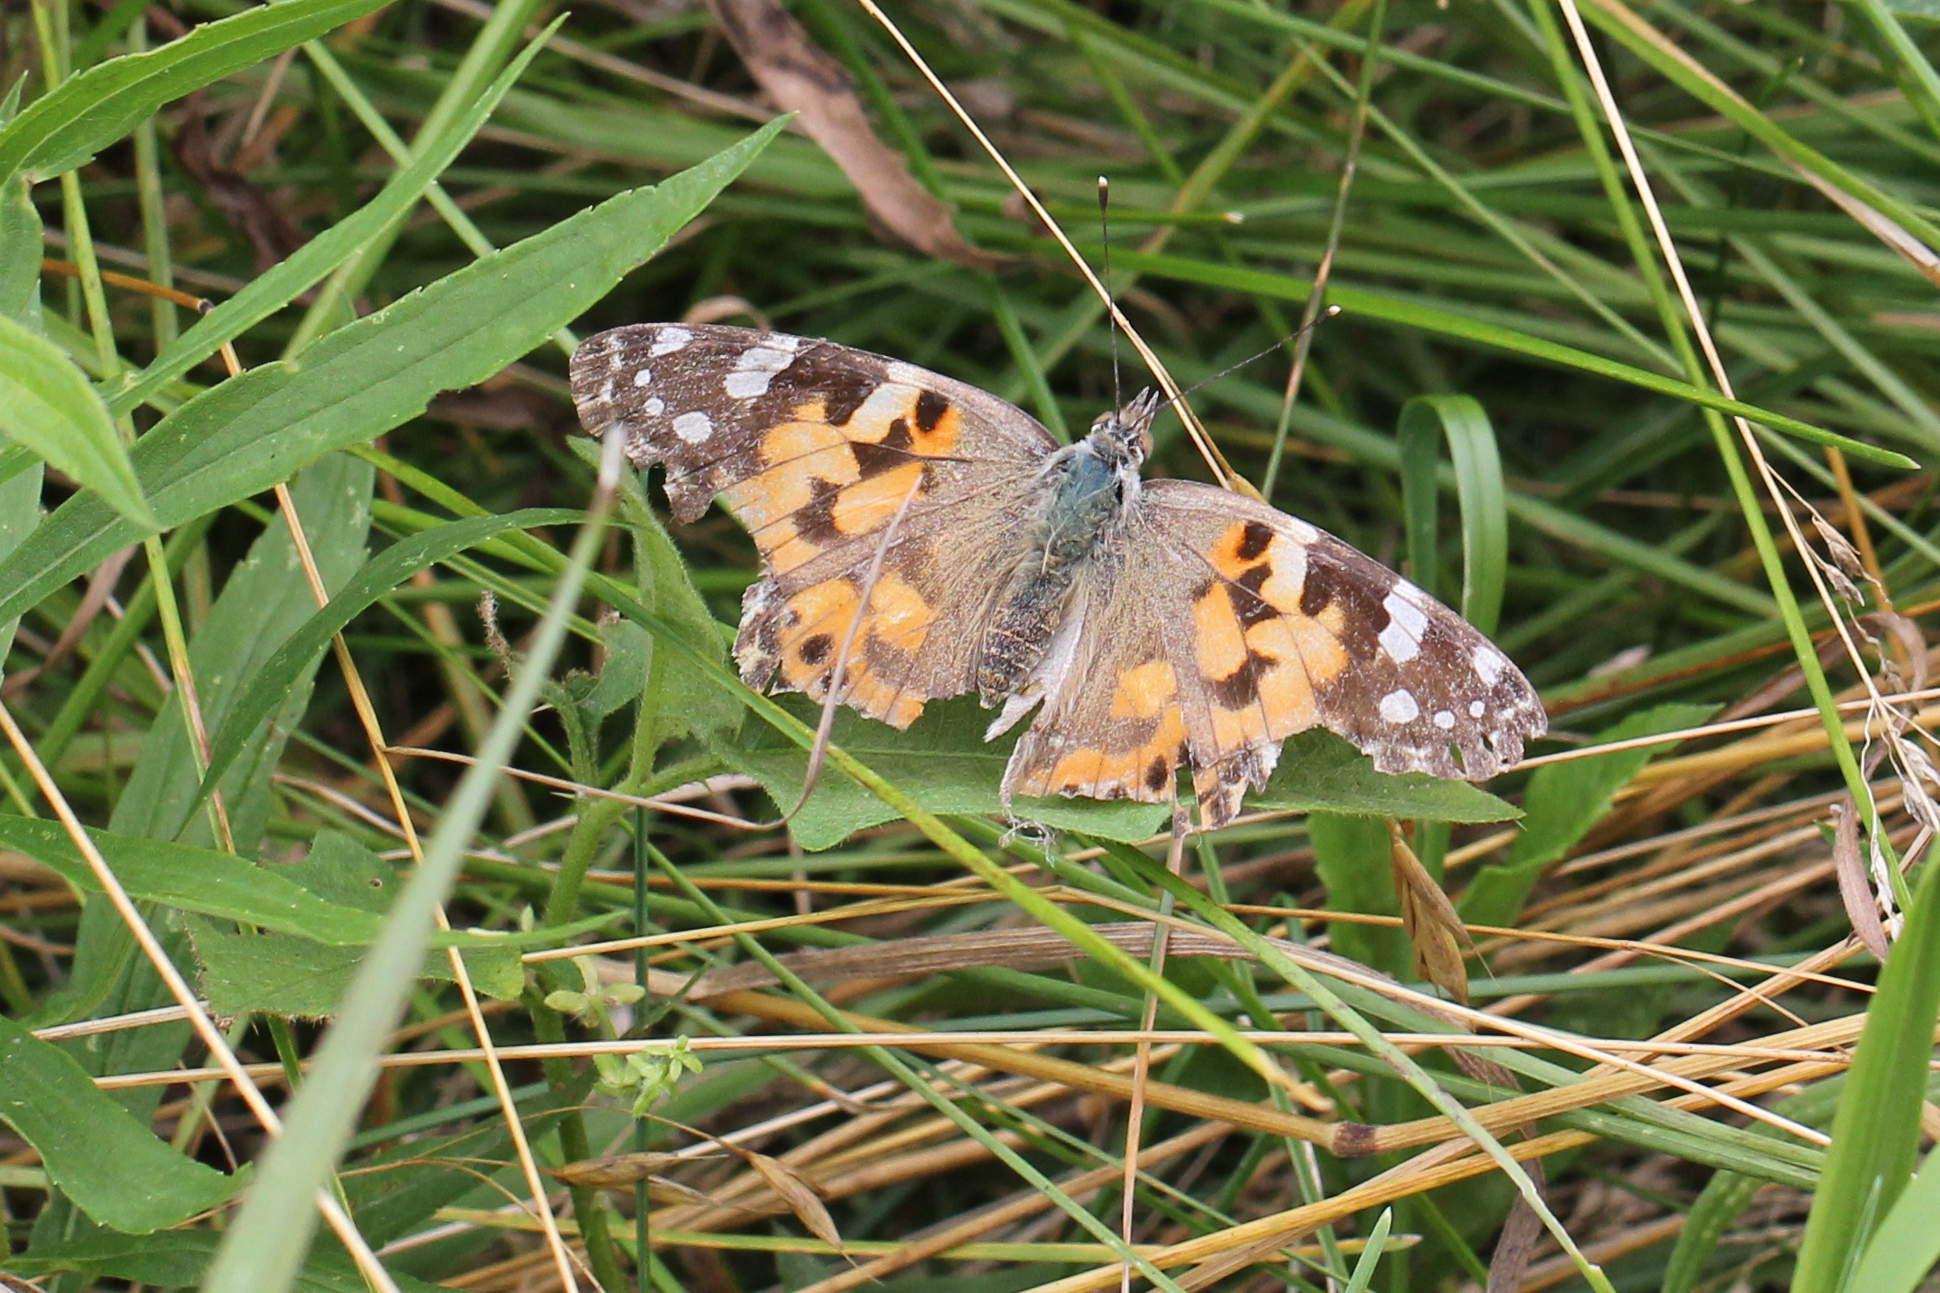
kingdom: Animalia
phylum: Arthropoda
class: Insecta
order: Lepidoptera
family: Nymphalidae
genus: Vanessa
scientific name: Vanessa cardui
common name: Painted lady
